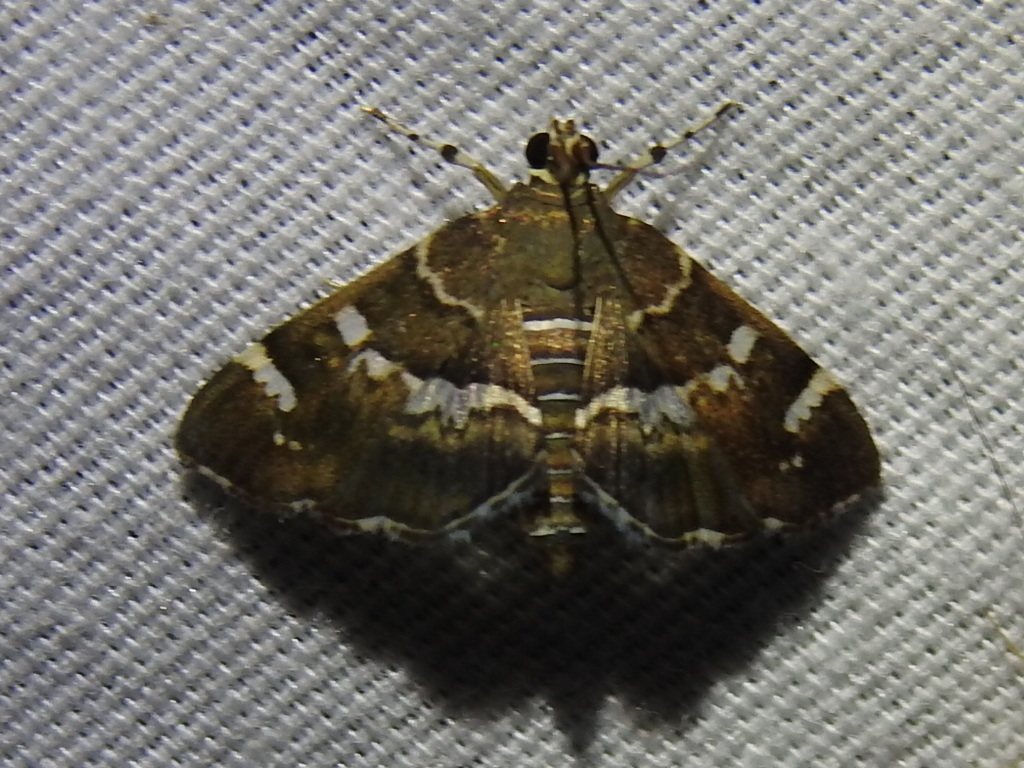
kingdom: Animalia
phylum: Arthropoda
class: Insecta
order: Lepidoptera
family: Crambidae
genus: Hymenia
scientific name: Hymenia perspectalis
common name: Spotted beet webworm
